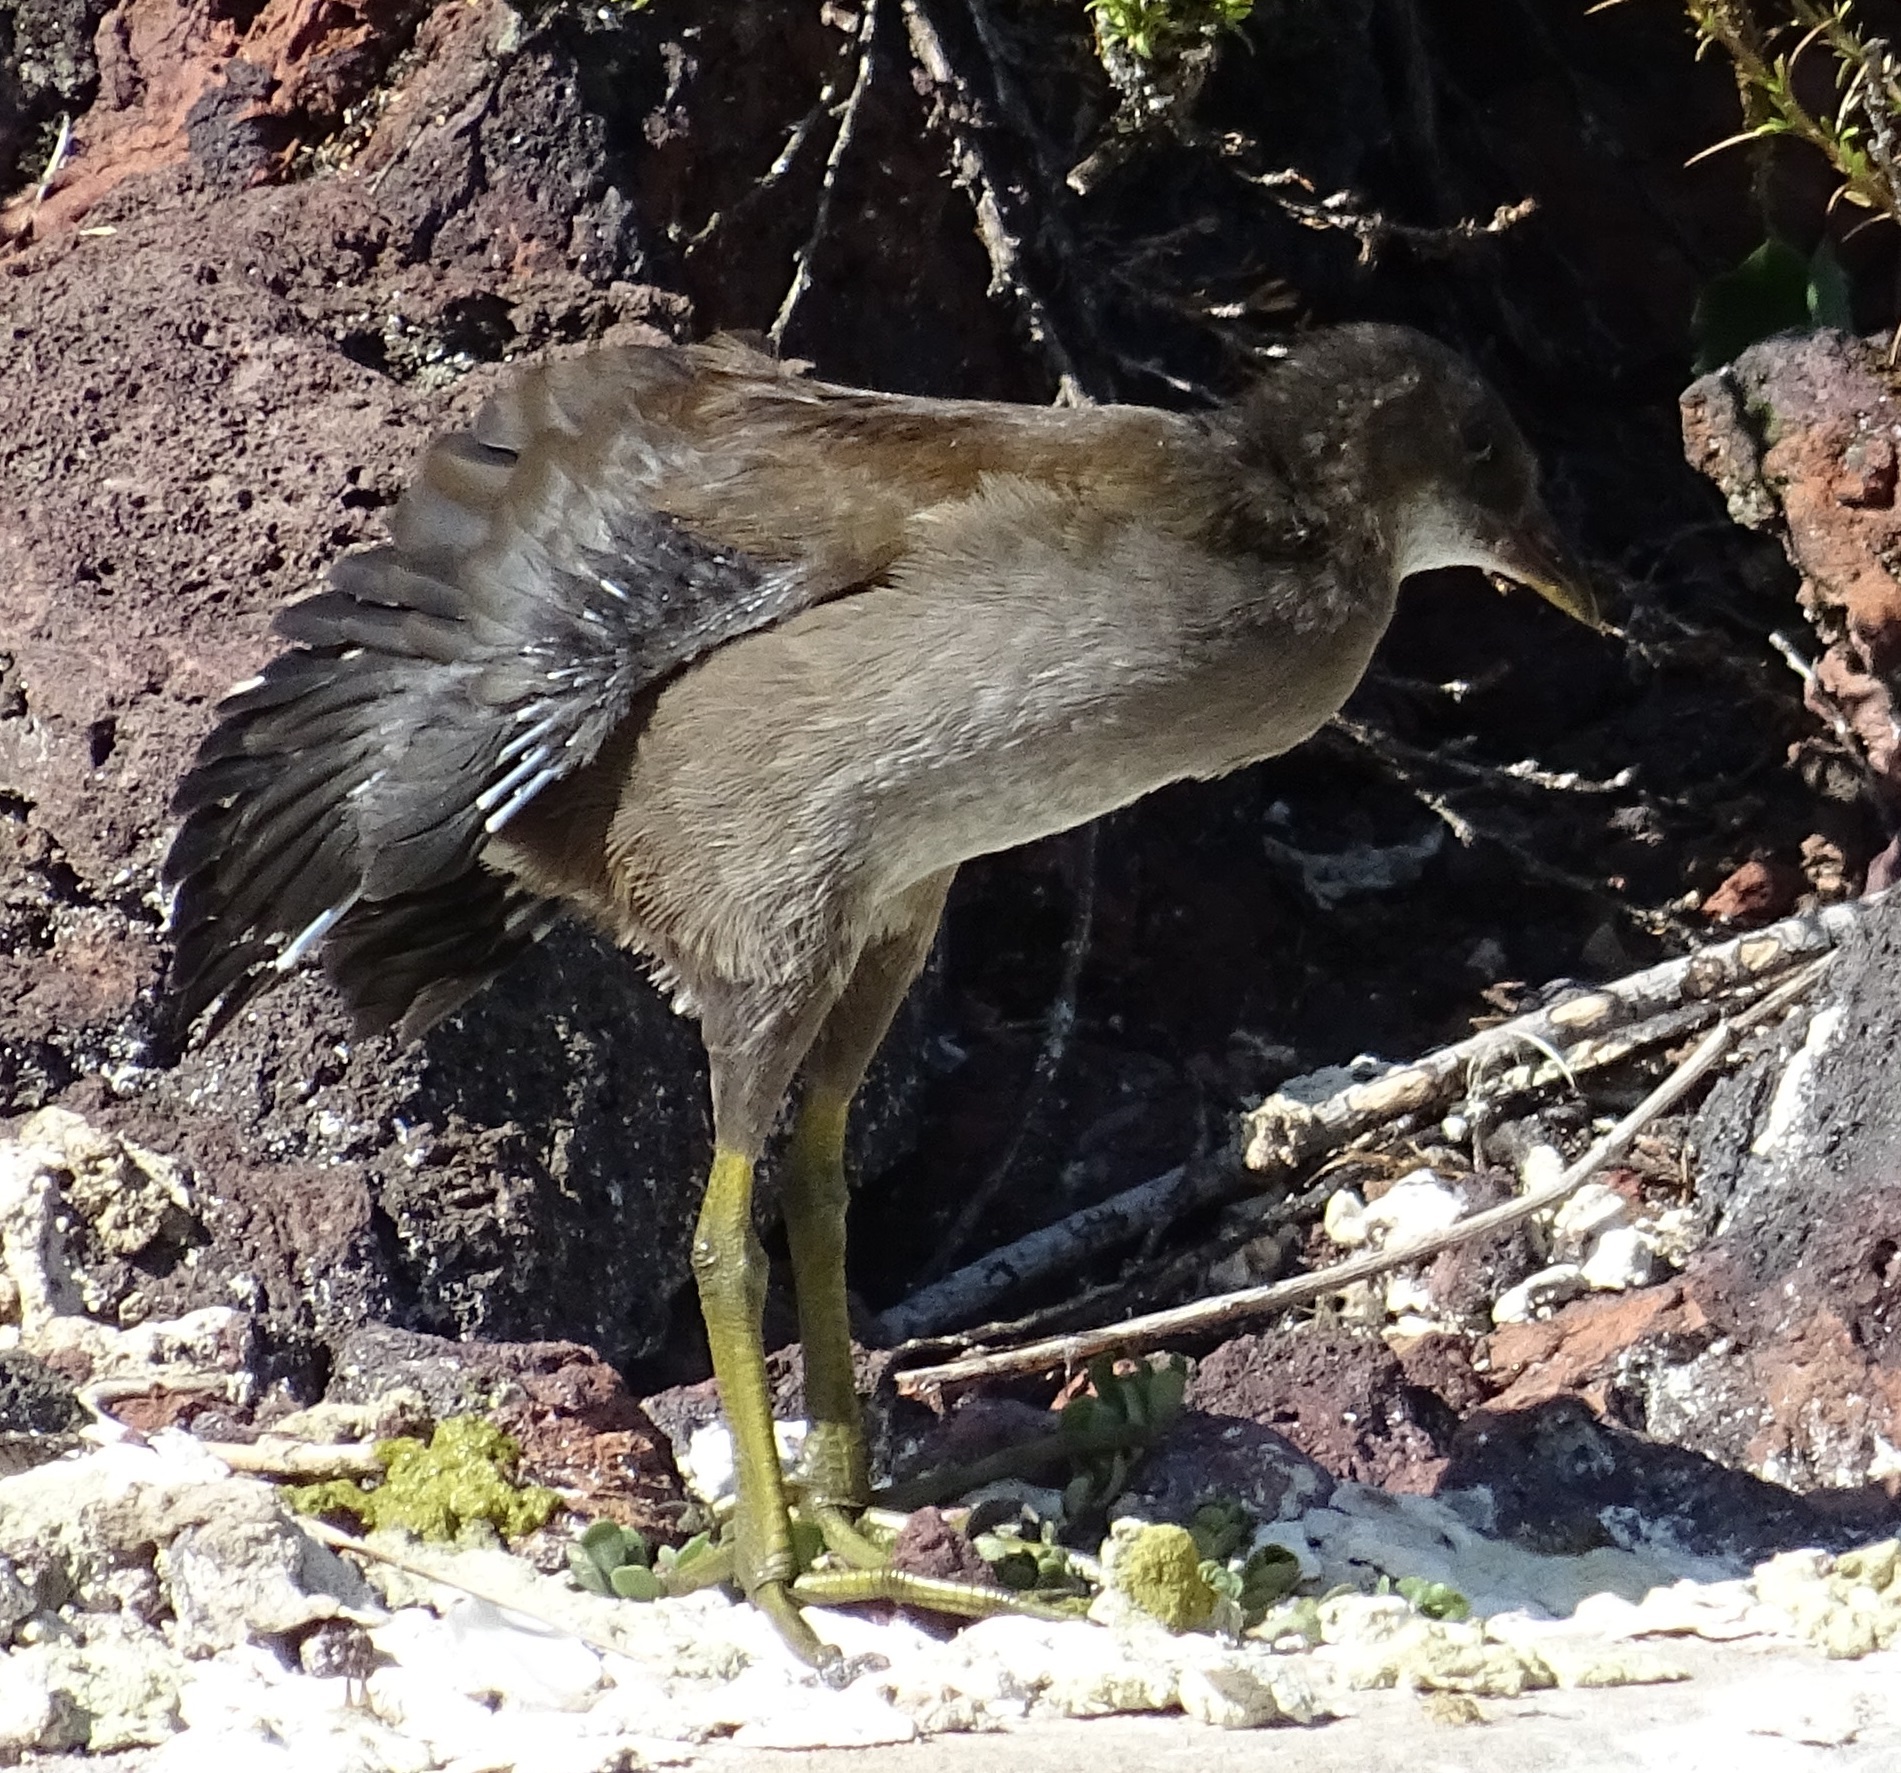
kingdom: Animalia
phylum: Chordata
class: Aves
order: Gruiformes
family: Rallidae
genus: Gallinula
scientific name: Gallinula chloropus
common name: Common moorhen
